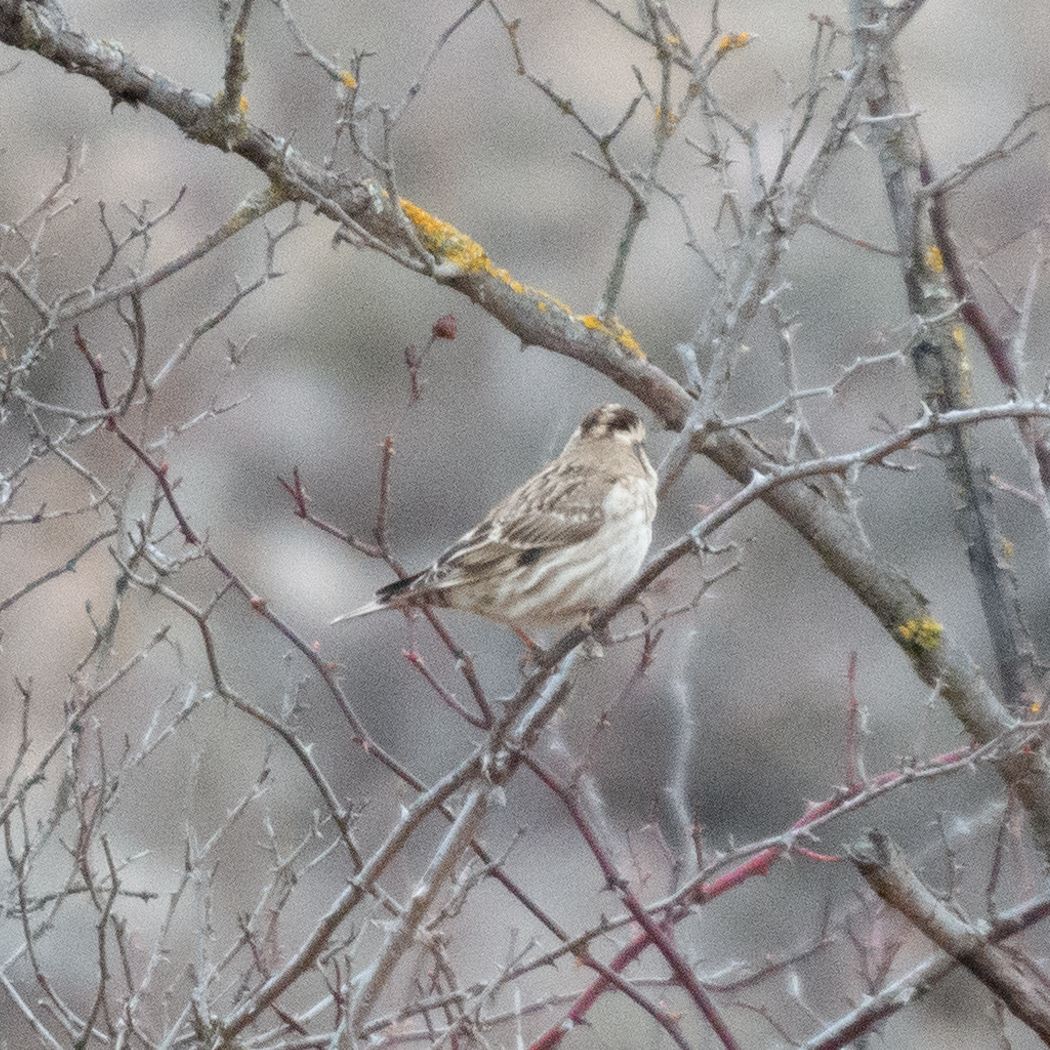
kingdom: Animalia
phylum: Chordata
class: Aves
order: Passeriformes
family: Passeridae
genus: Petronia
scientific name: Petronia petronia
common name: Rock sparrow
